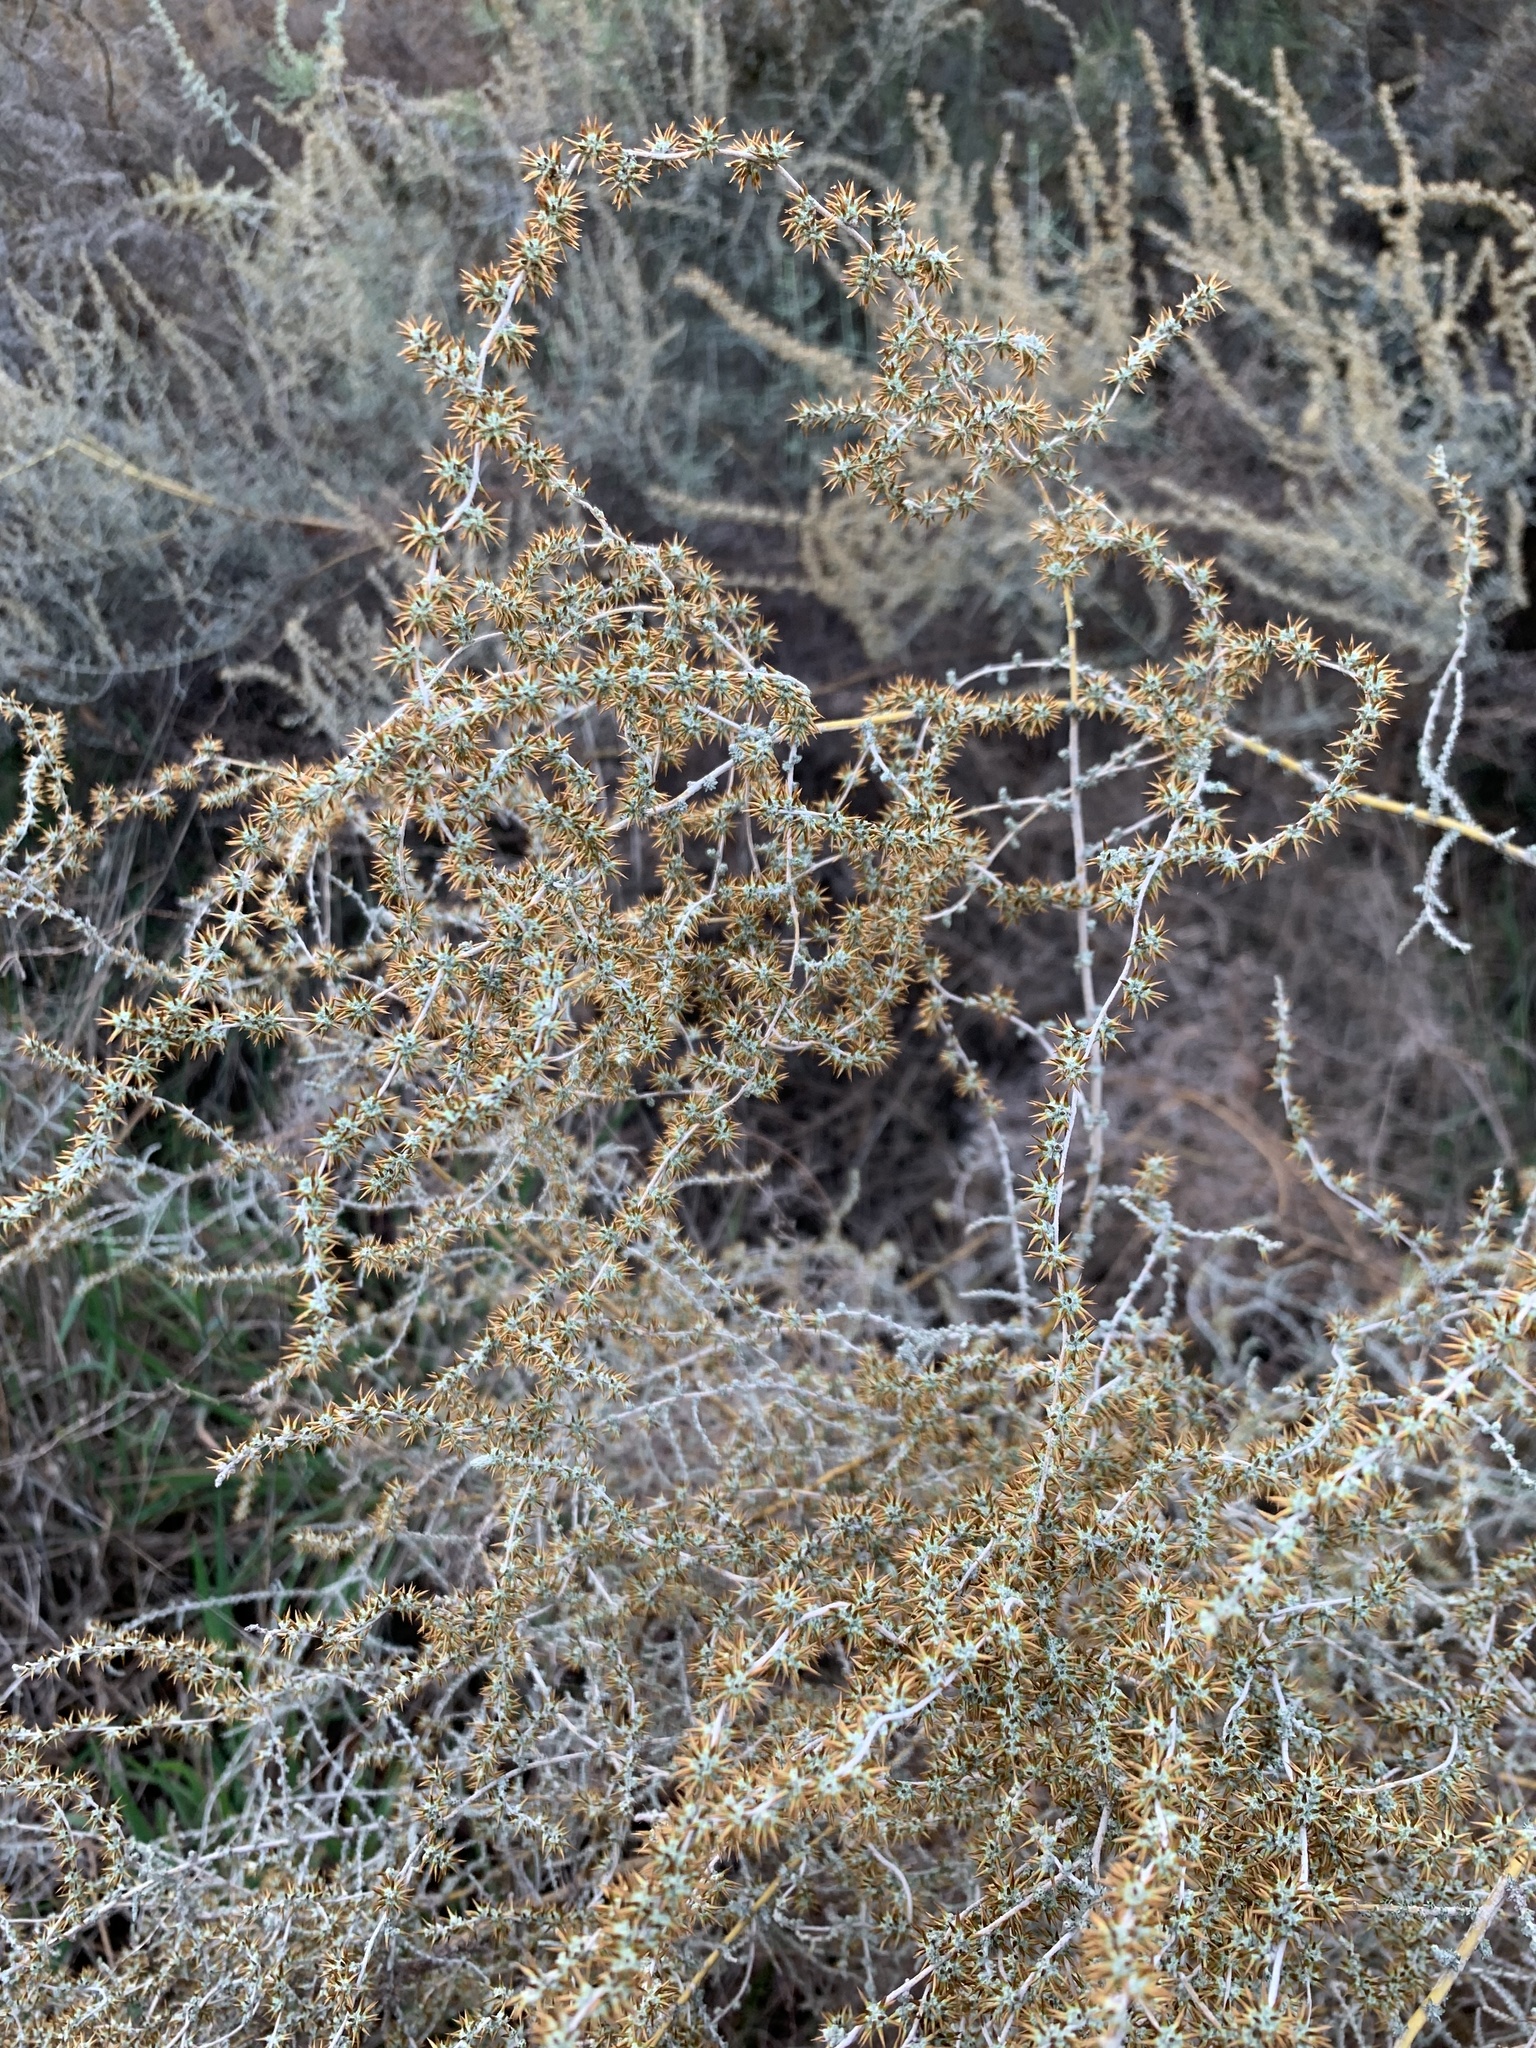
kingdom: Plantae
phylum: Tracheophyta
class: Magnoliopsida
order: Asterales
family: Asteraceae
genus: Seriphium
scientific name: Seriphium plumosum
